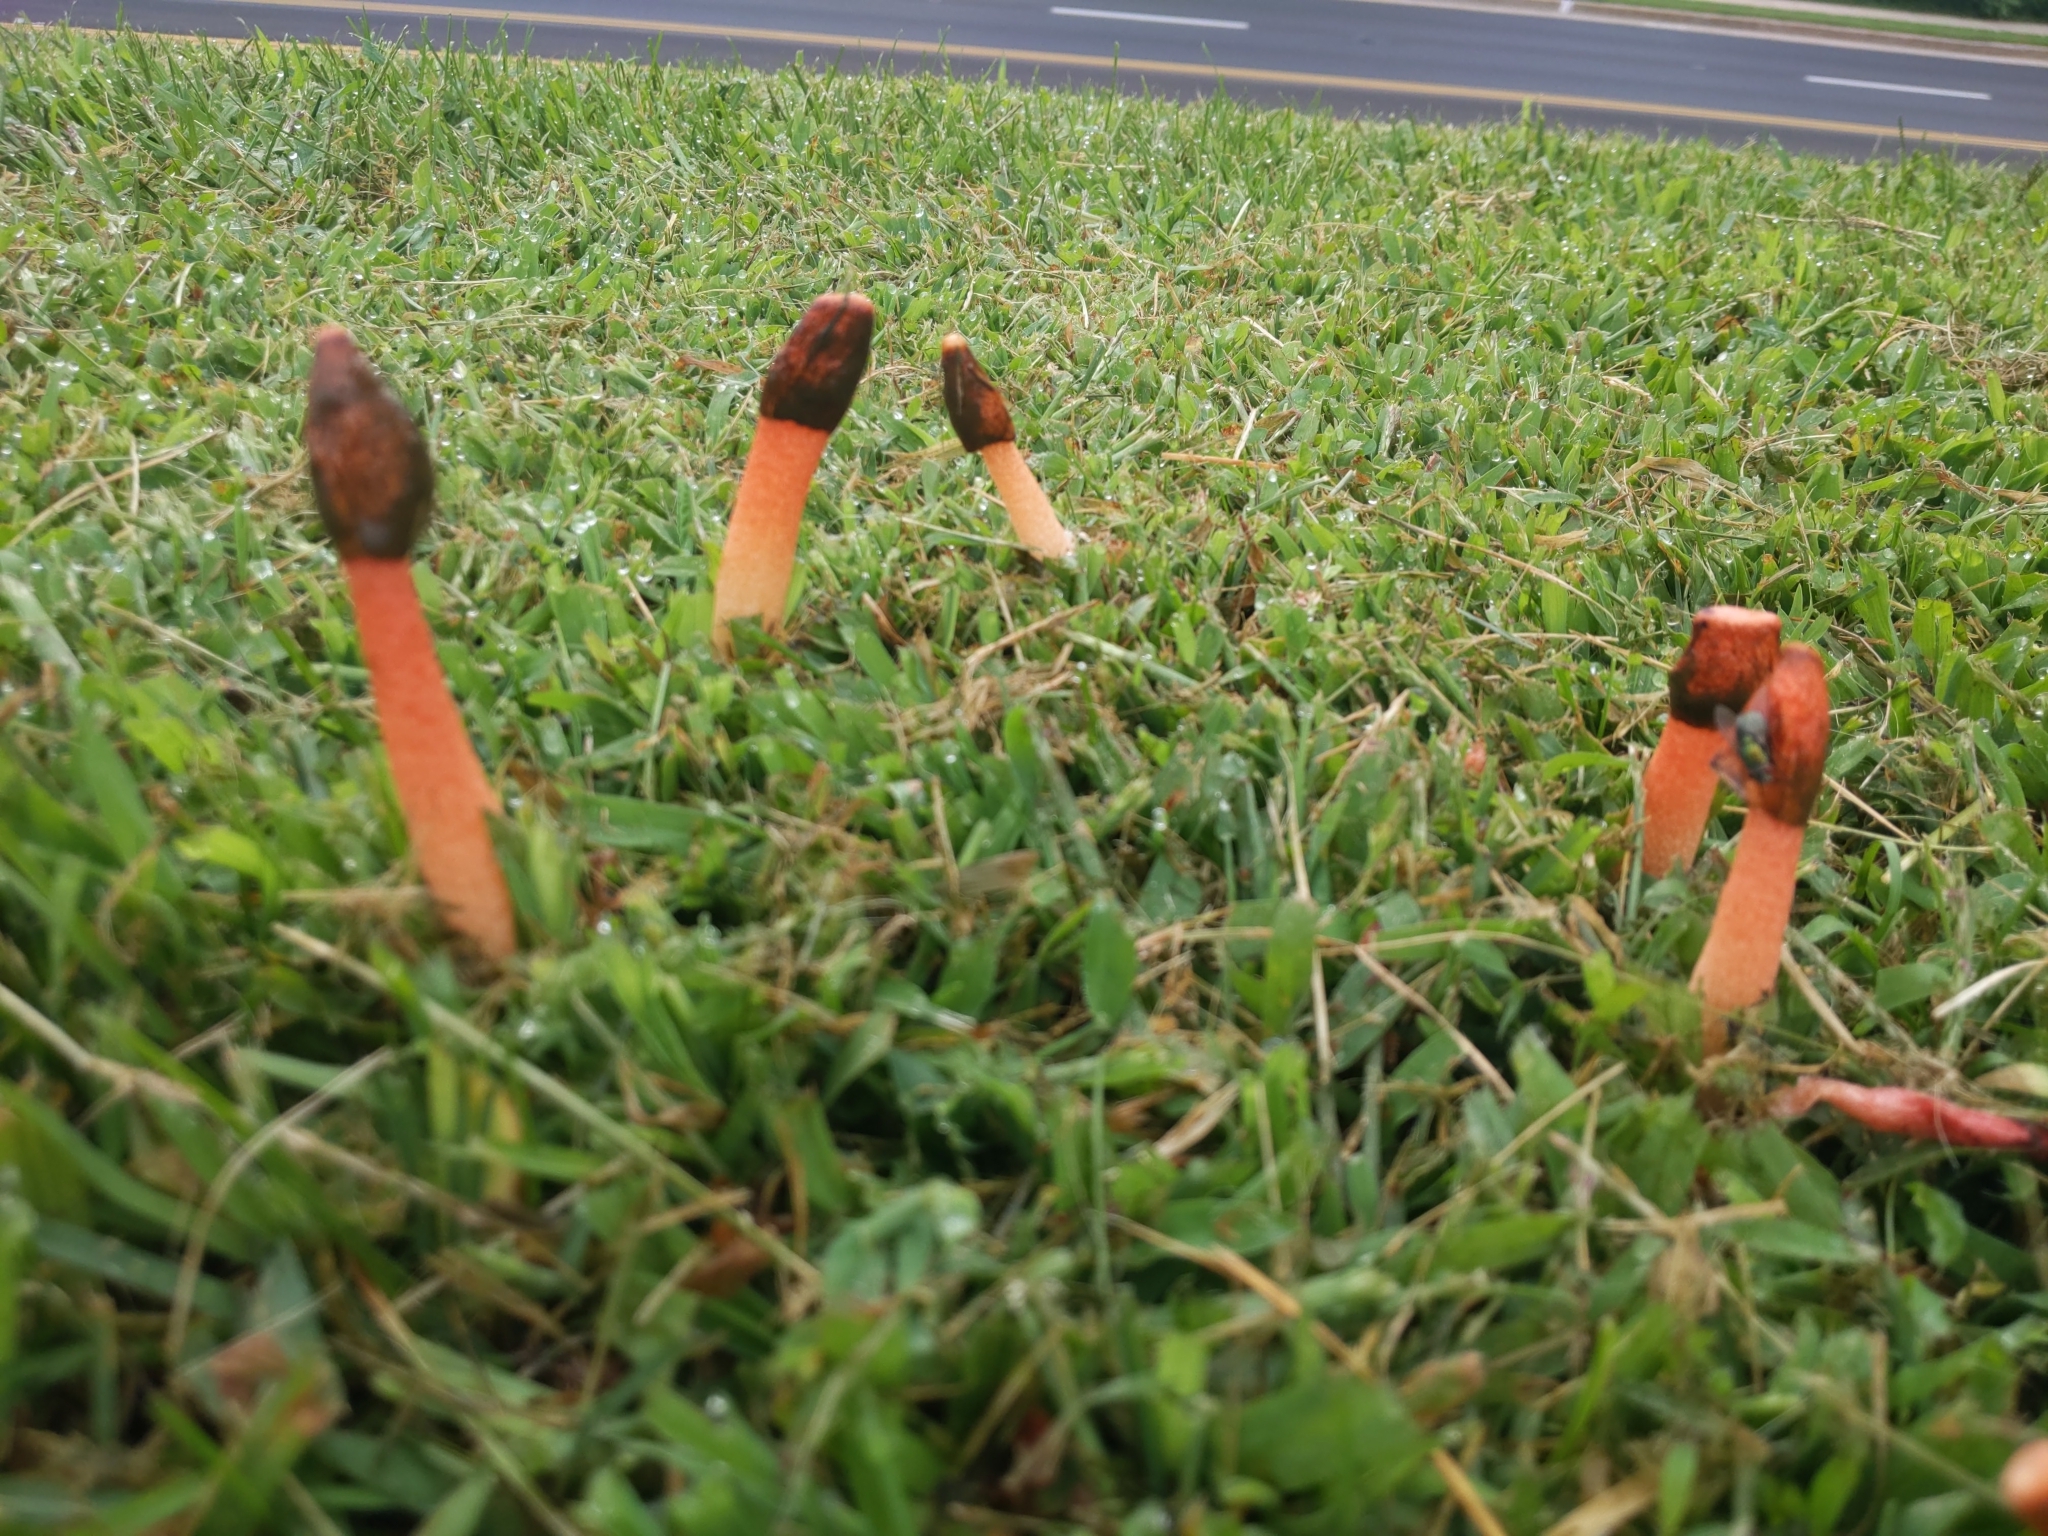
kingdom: Fungi
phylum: Basidiomycota
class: Agaricomycetes
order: Phallales
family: Phallaceae
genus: Phallus
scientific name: Phallus rugulosus
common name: Wrinkly stinkhorn
